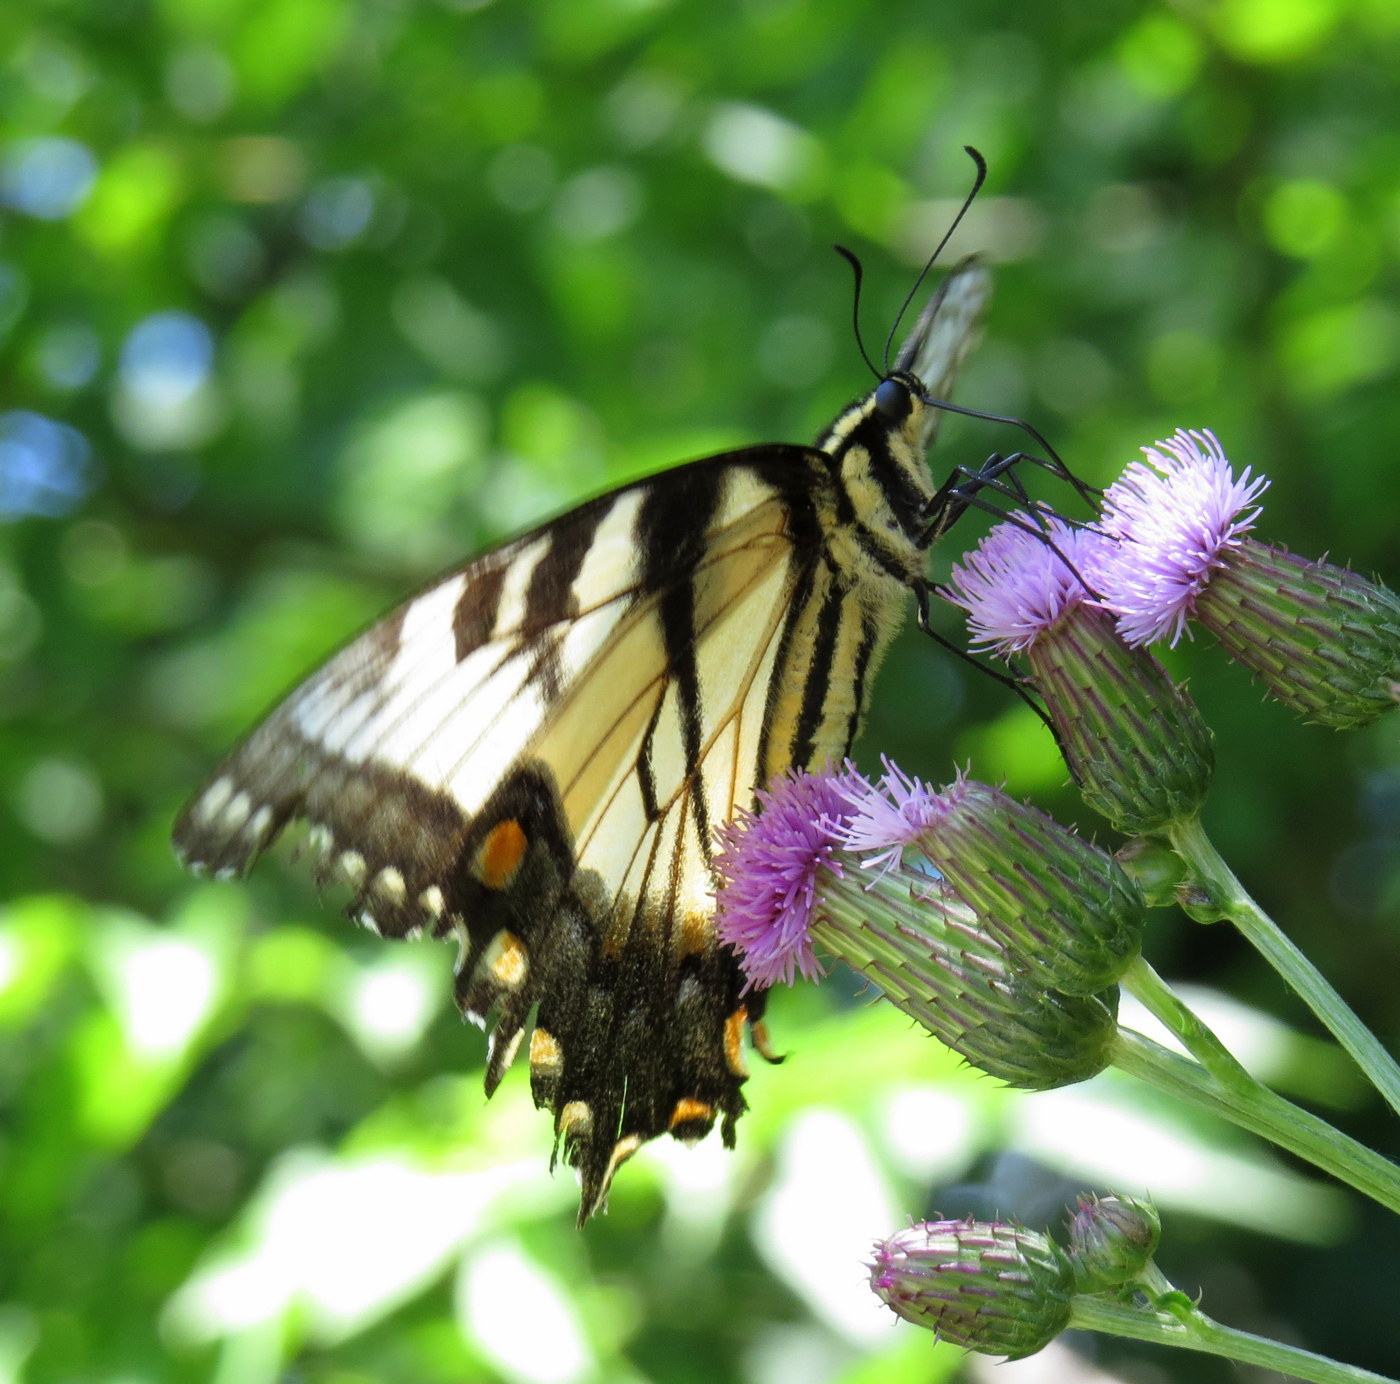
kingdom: Animalia
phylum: Arthropoda
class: Insecta
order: Lepidoptera
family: Papilionidae
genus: Papilio
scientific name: Papilio glaucus
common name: Tiger swallowtail
